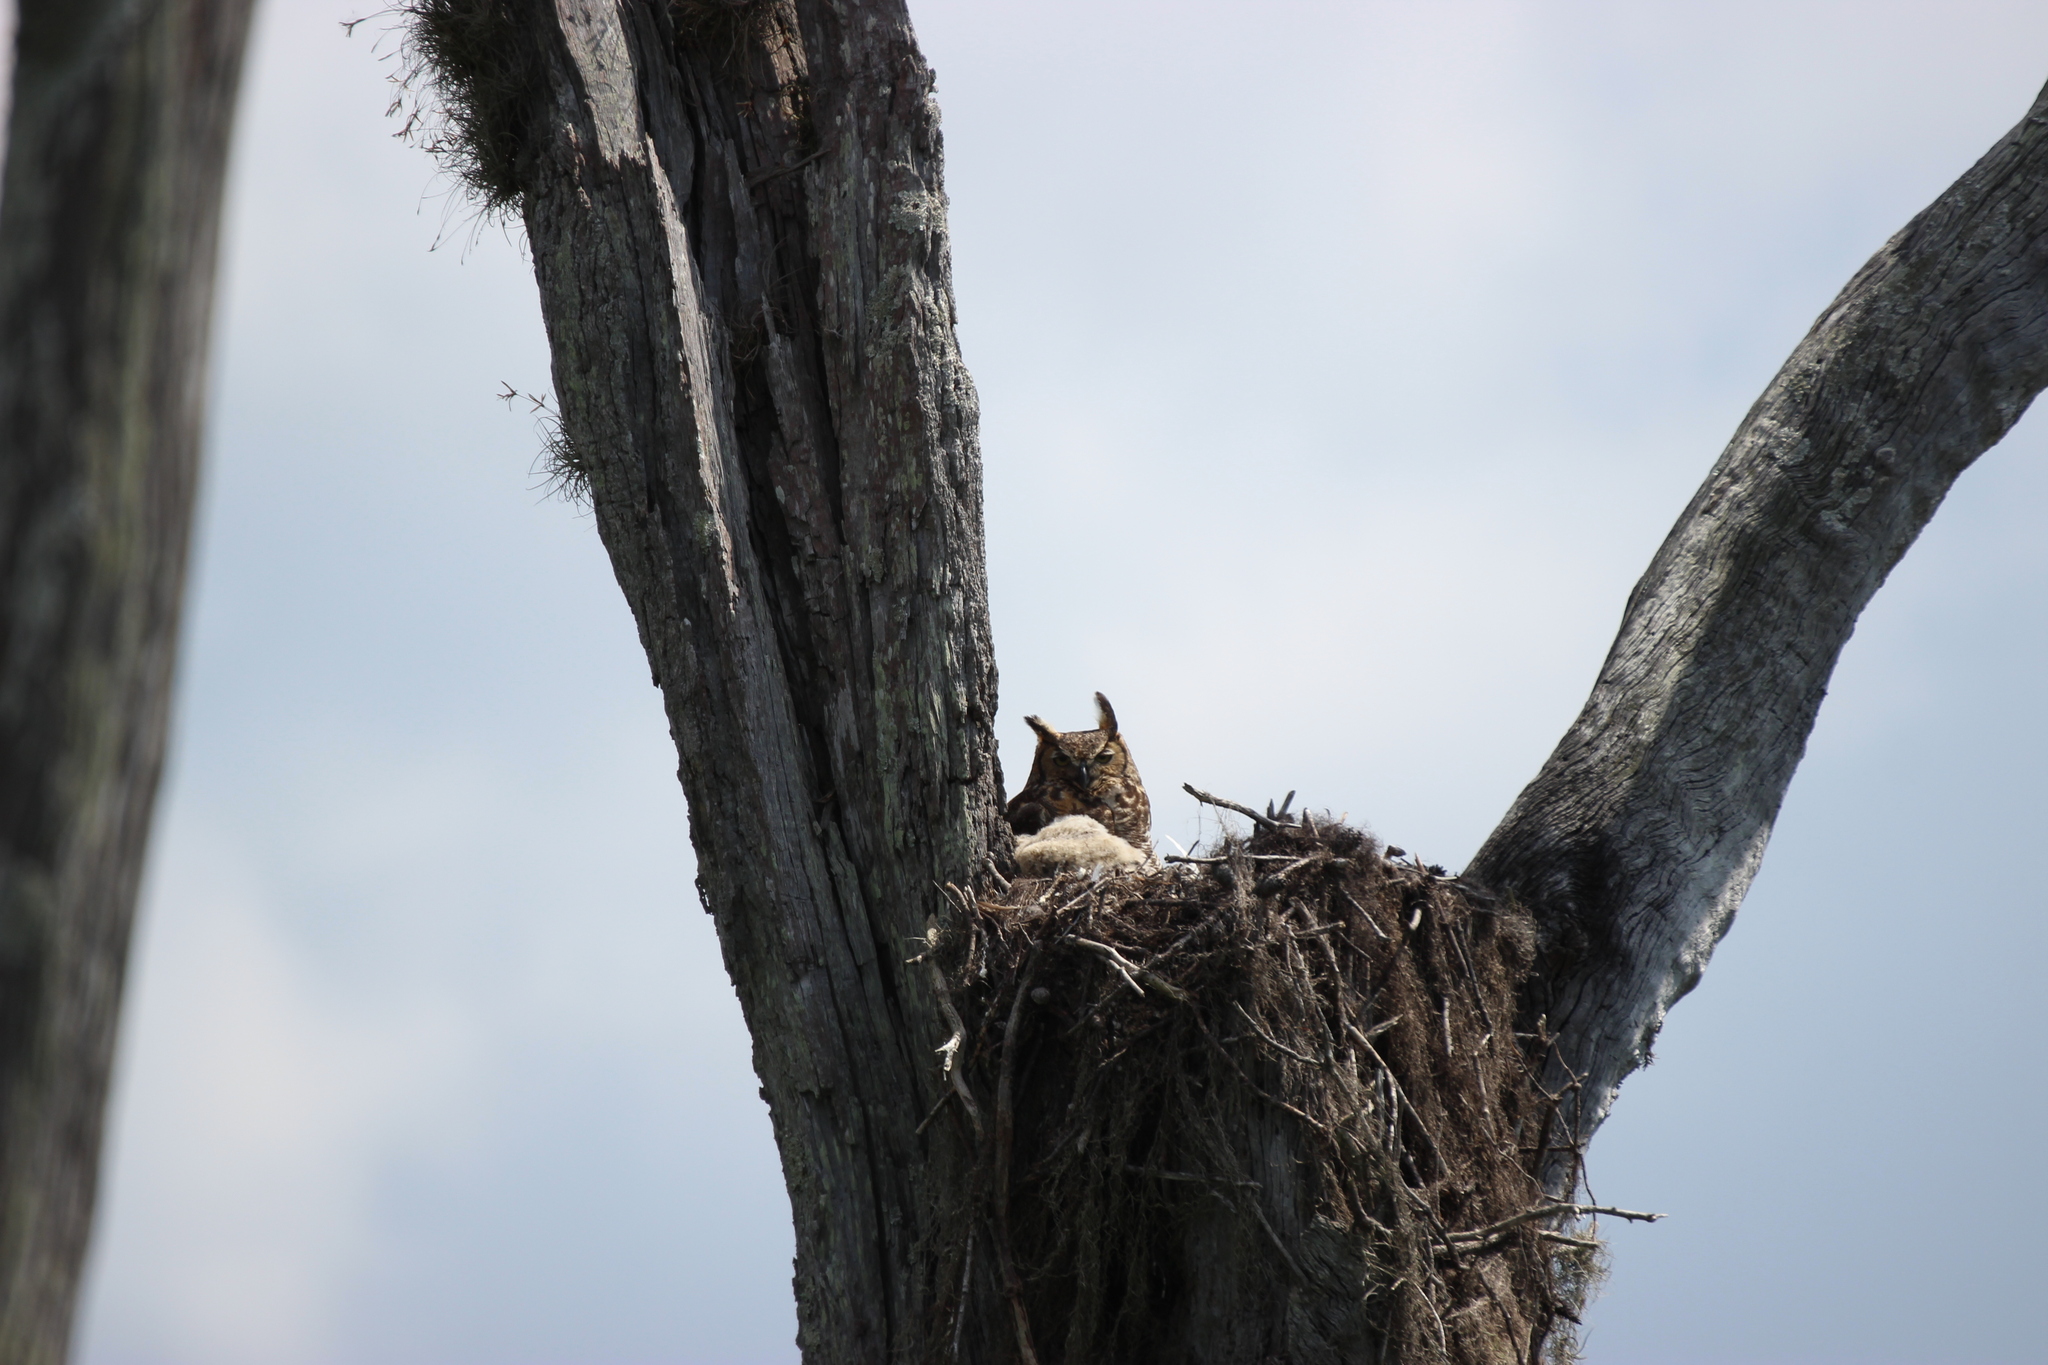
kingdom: Animalia
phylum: Chordata
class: Aves
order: Strigiformes
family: Strigidae
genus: Bubo
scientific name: Bubo virginianus
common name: Great horned owl
